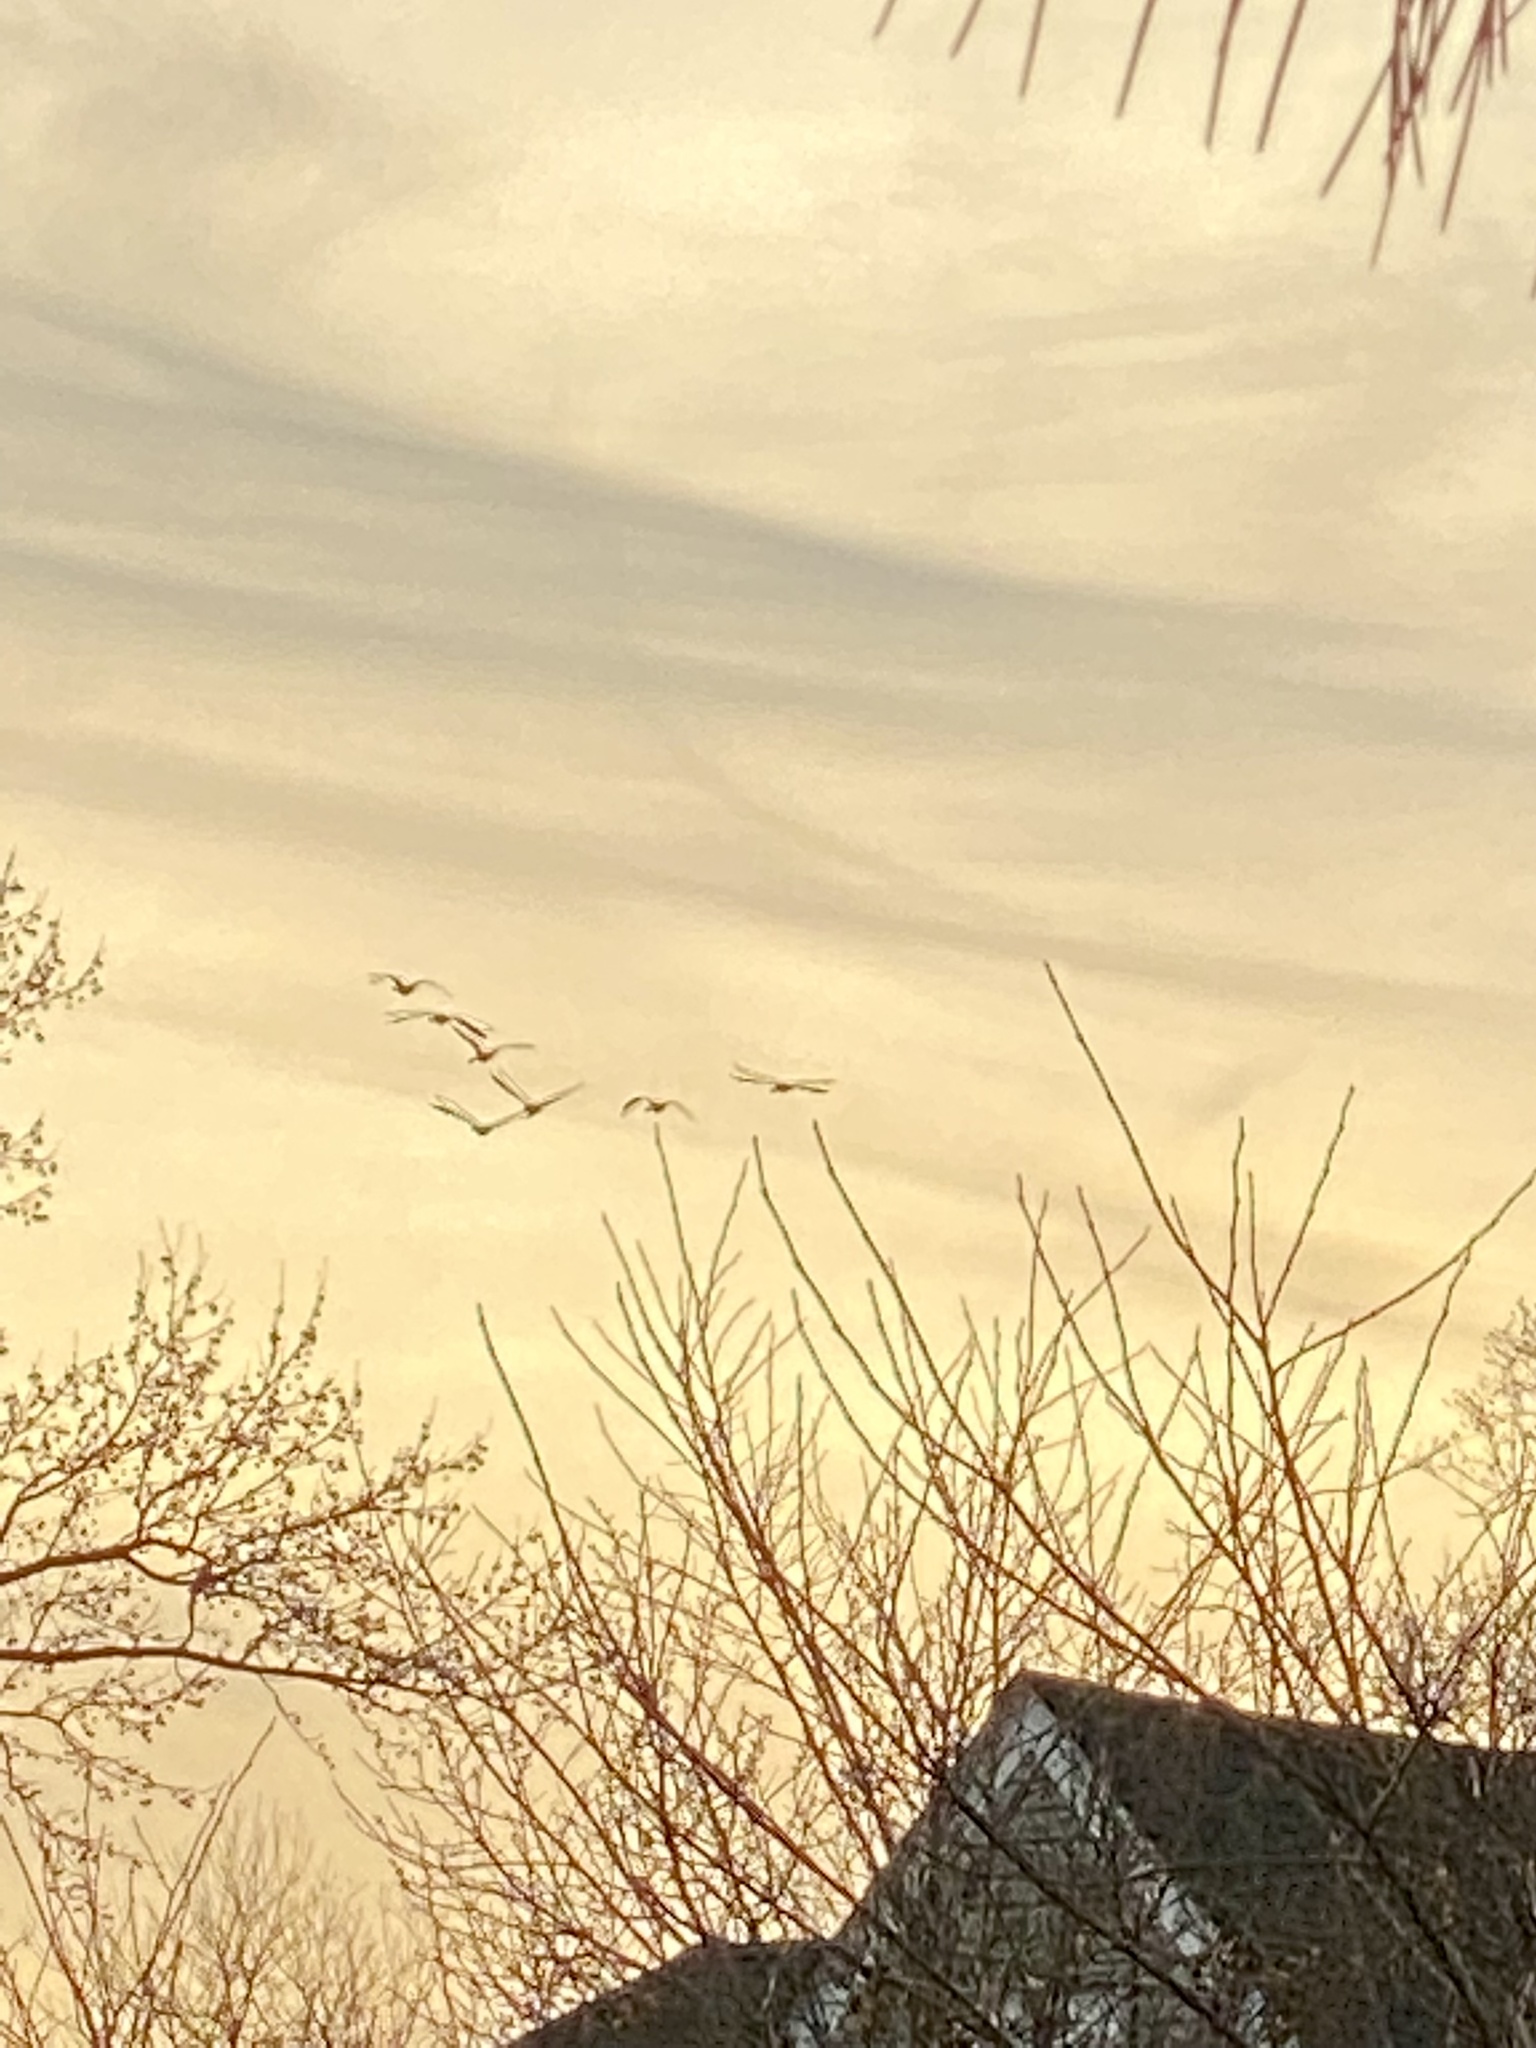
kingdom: Animalia
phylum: Chordata
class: Aves
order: Anseriformes
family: Anatidae
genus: Branta
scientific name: Branta canadensis
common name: Canada goose
